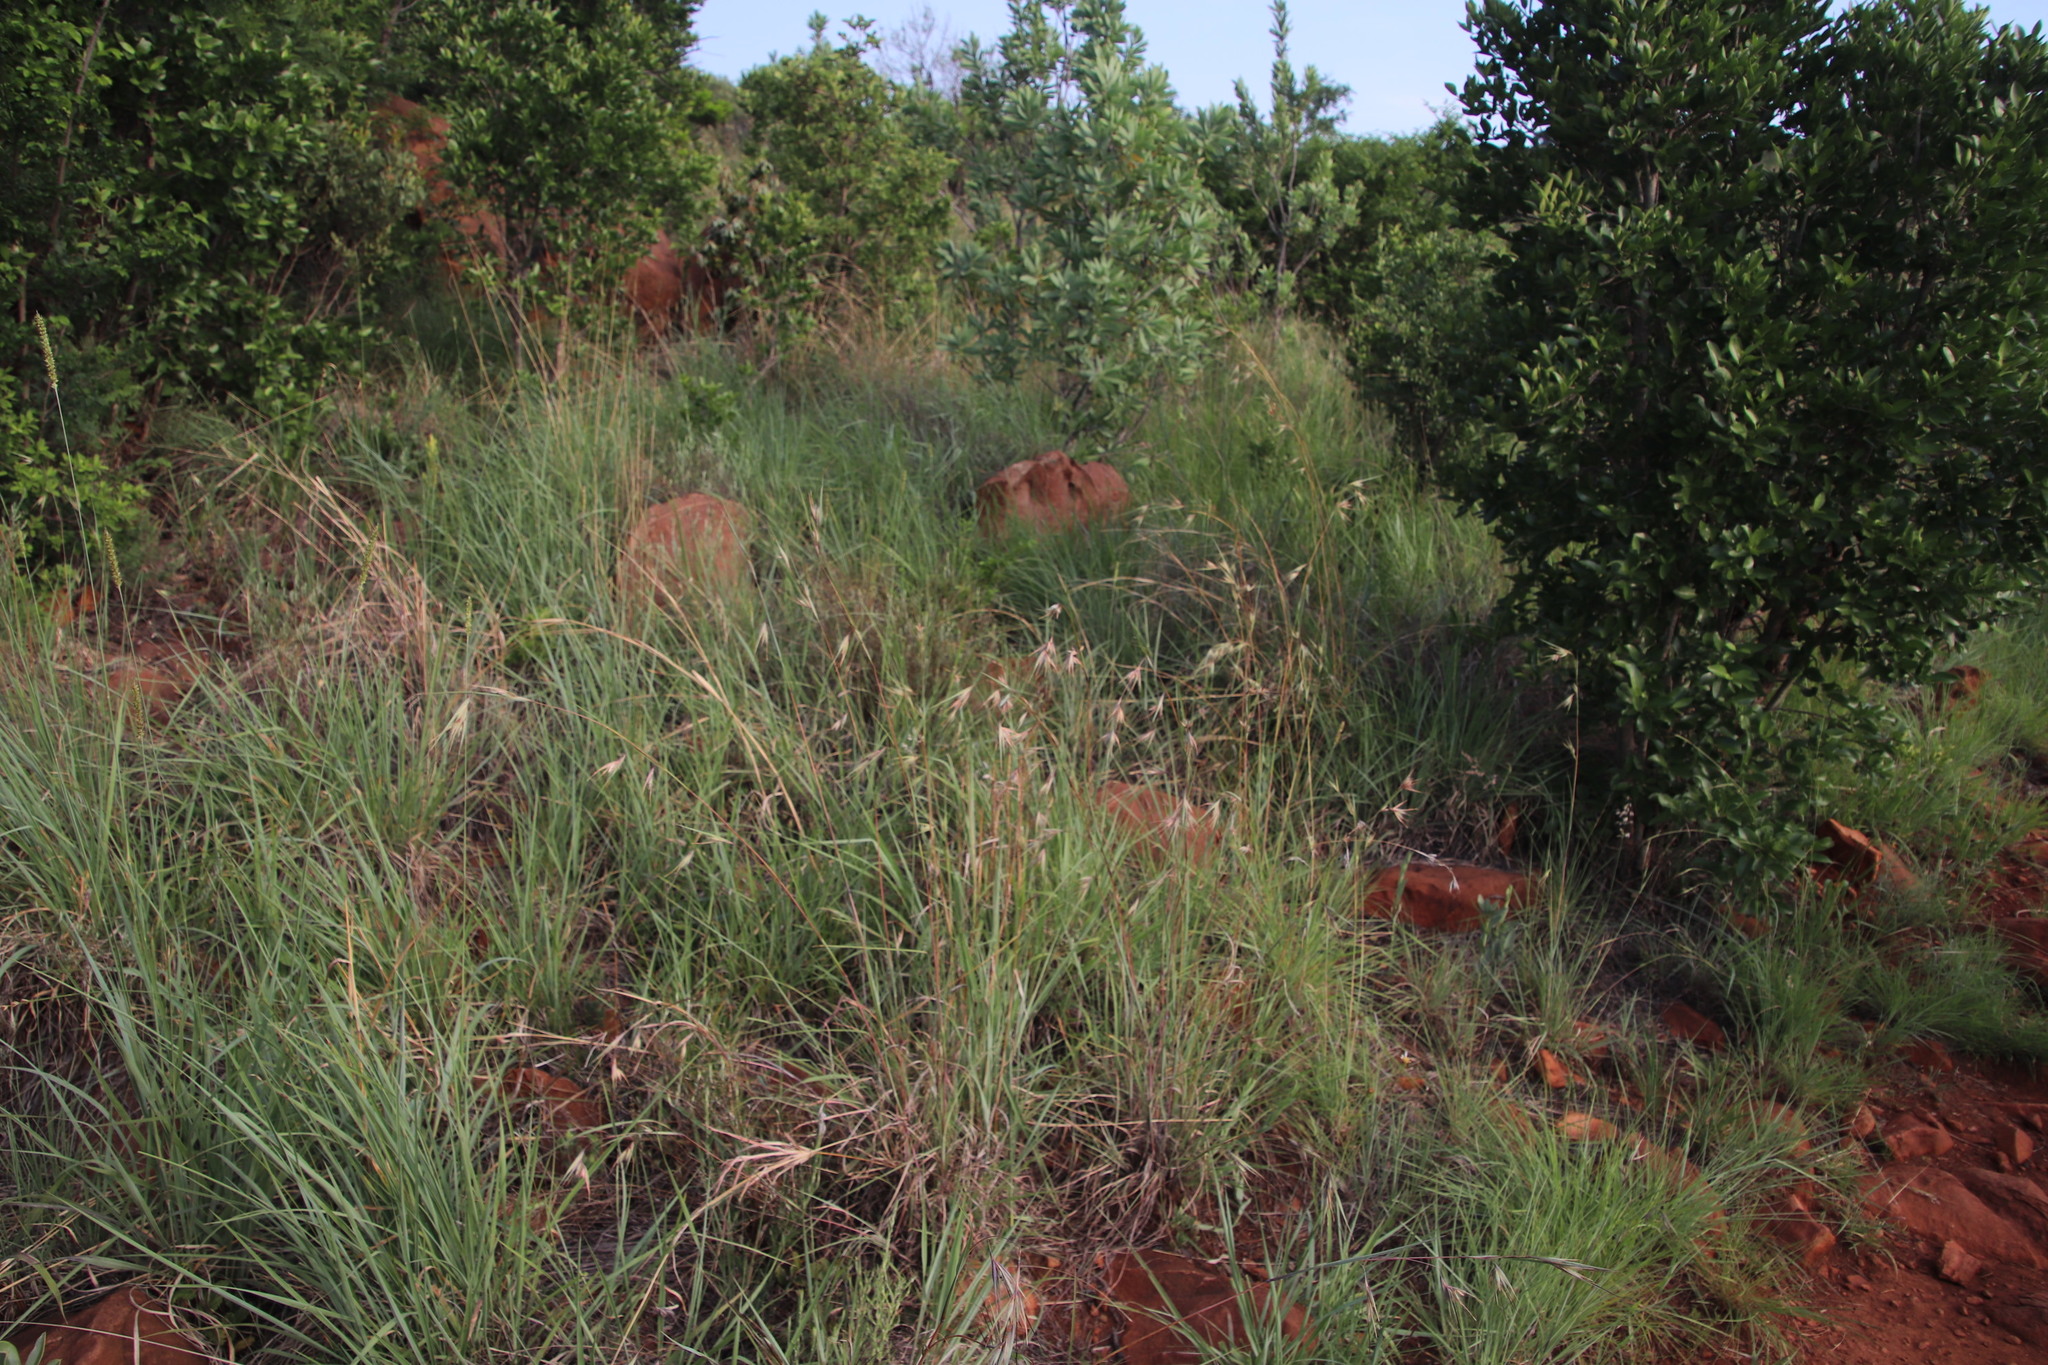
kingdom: Plantae
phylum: Tracheophyta
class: Liliopsida
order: Poales
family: Poaceae
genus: Themeda
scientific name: Themeda triandra
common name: Kangaroo grass
